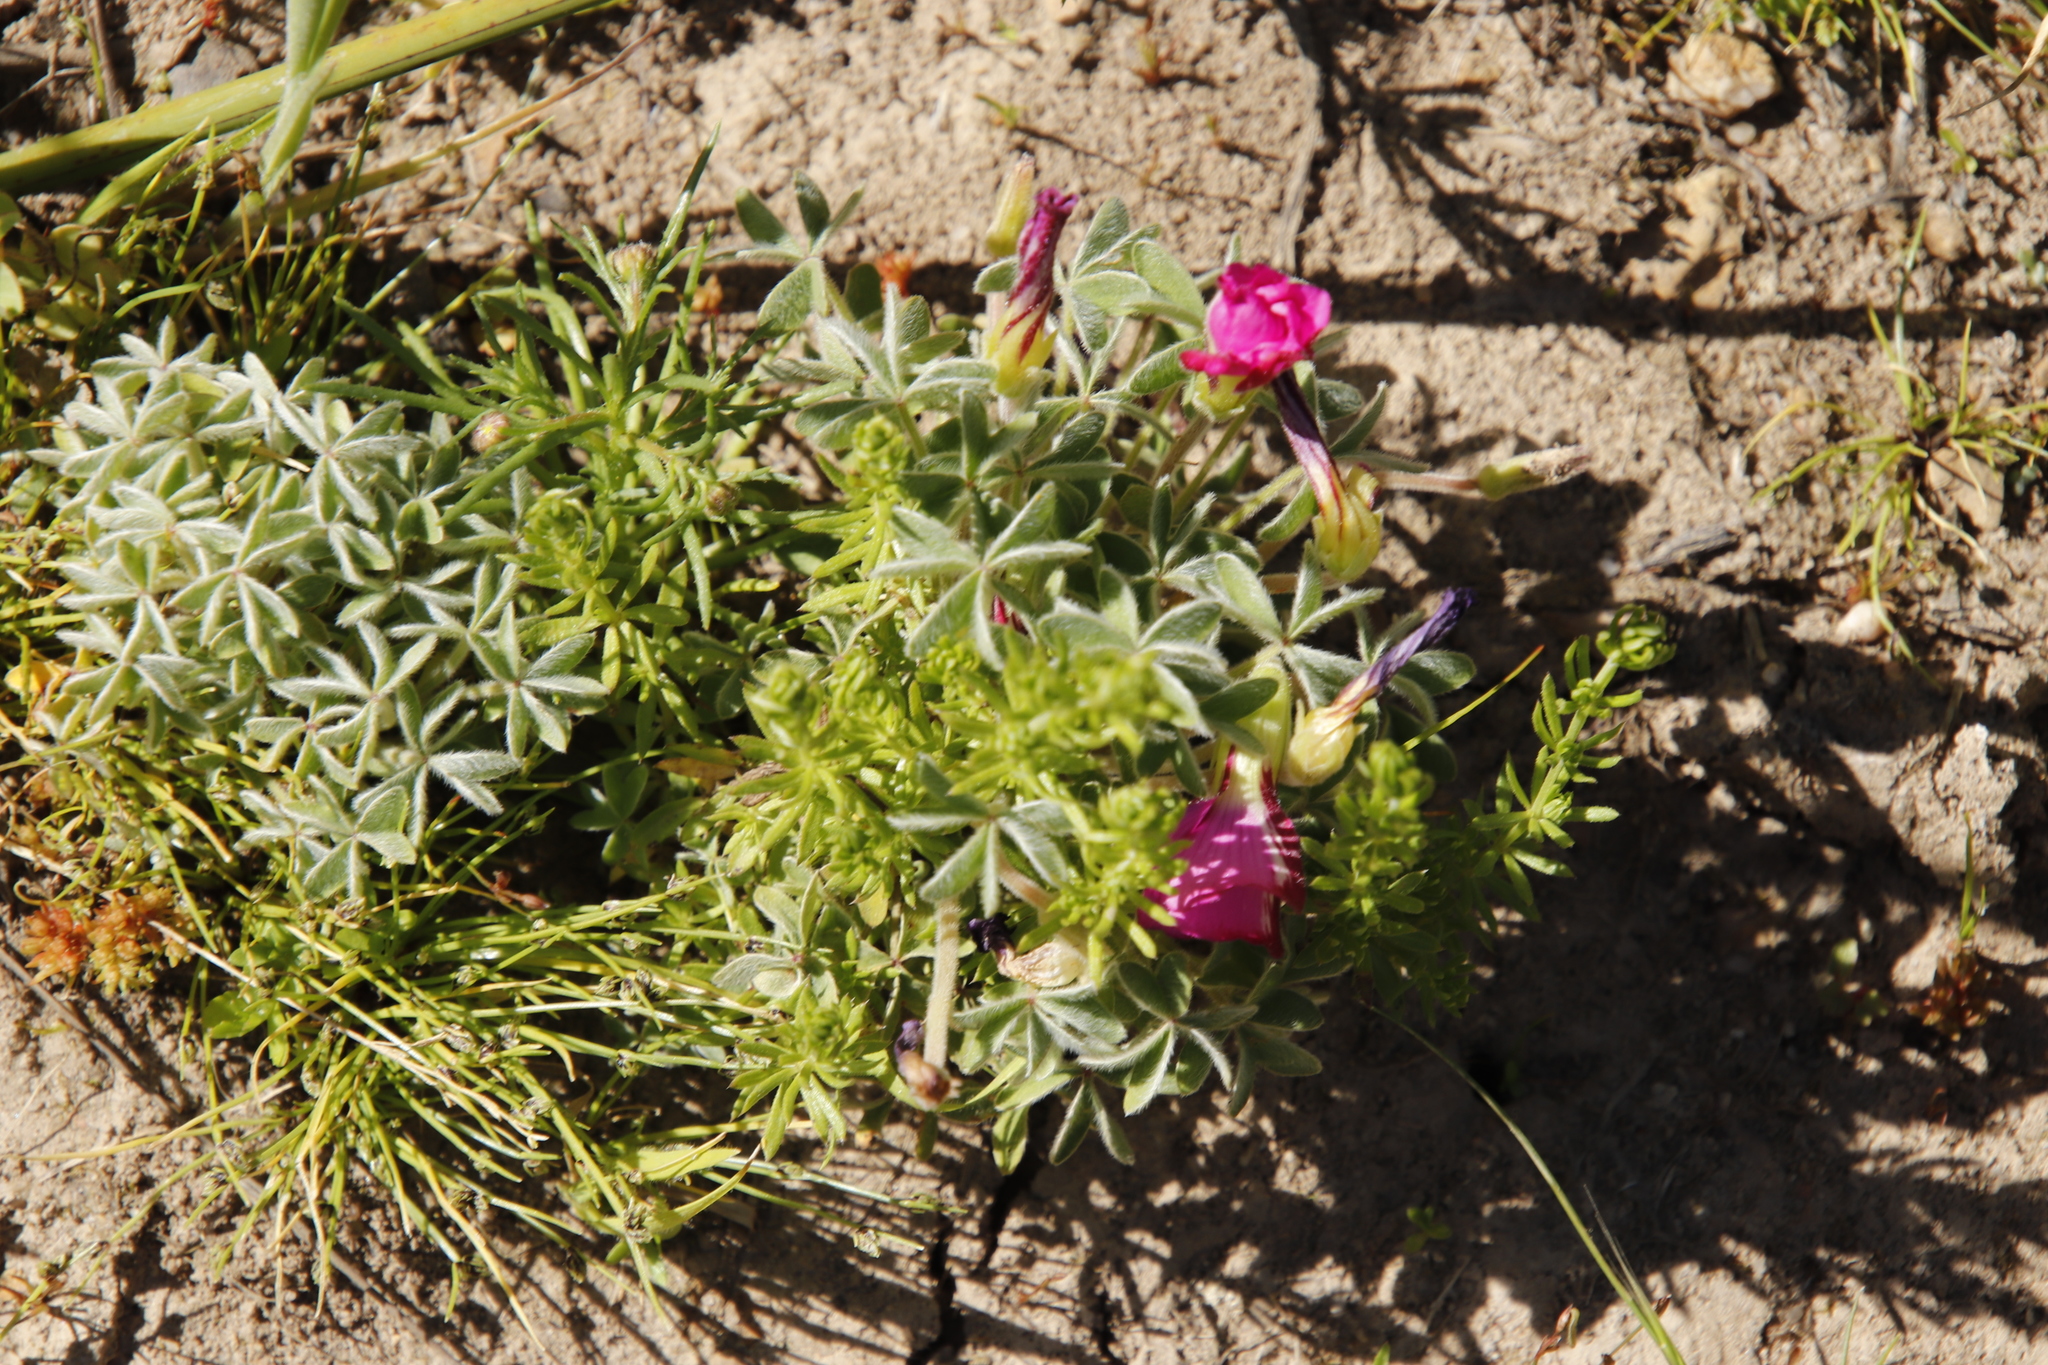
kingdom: Plantae
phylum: Tracheophyta
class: Magnoliopsida
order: Oxalidales
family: Oxalidaceae
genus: Oxalis
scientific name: Oxalis heterophylla
